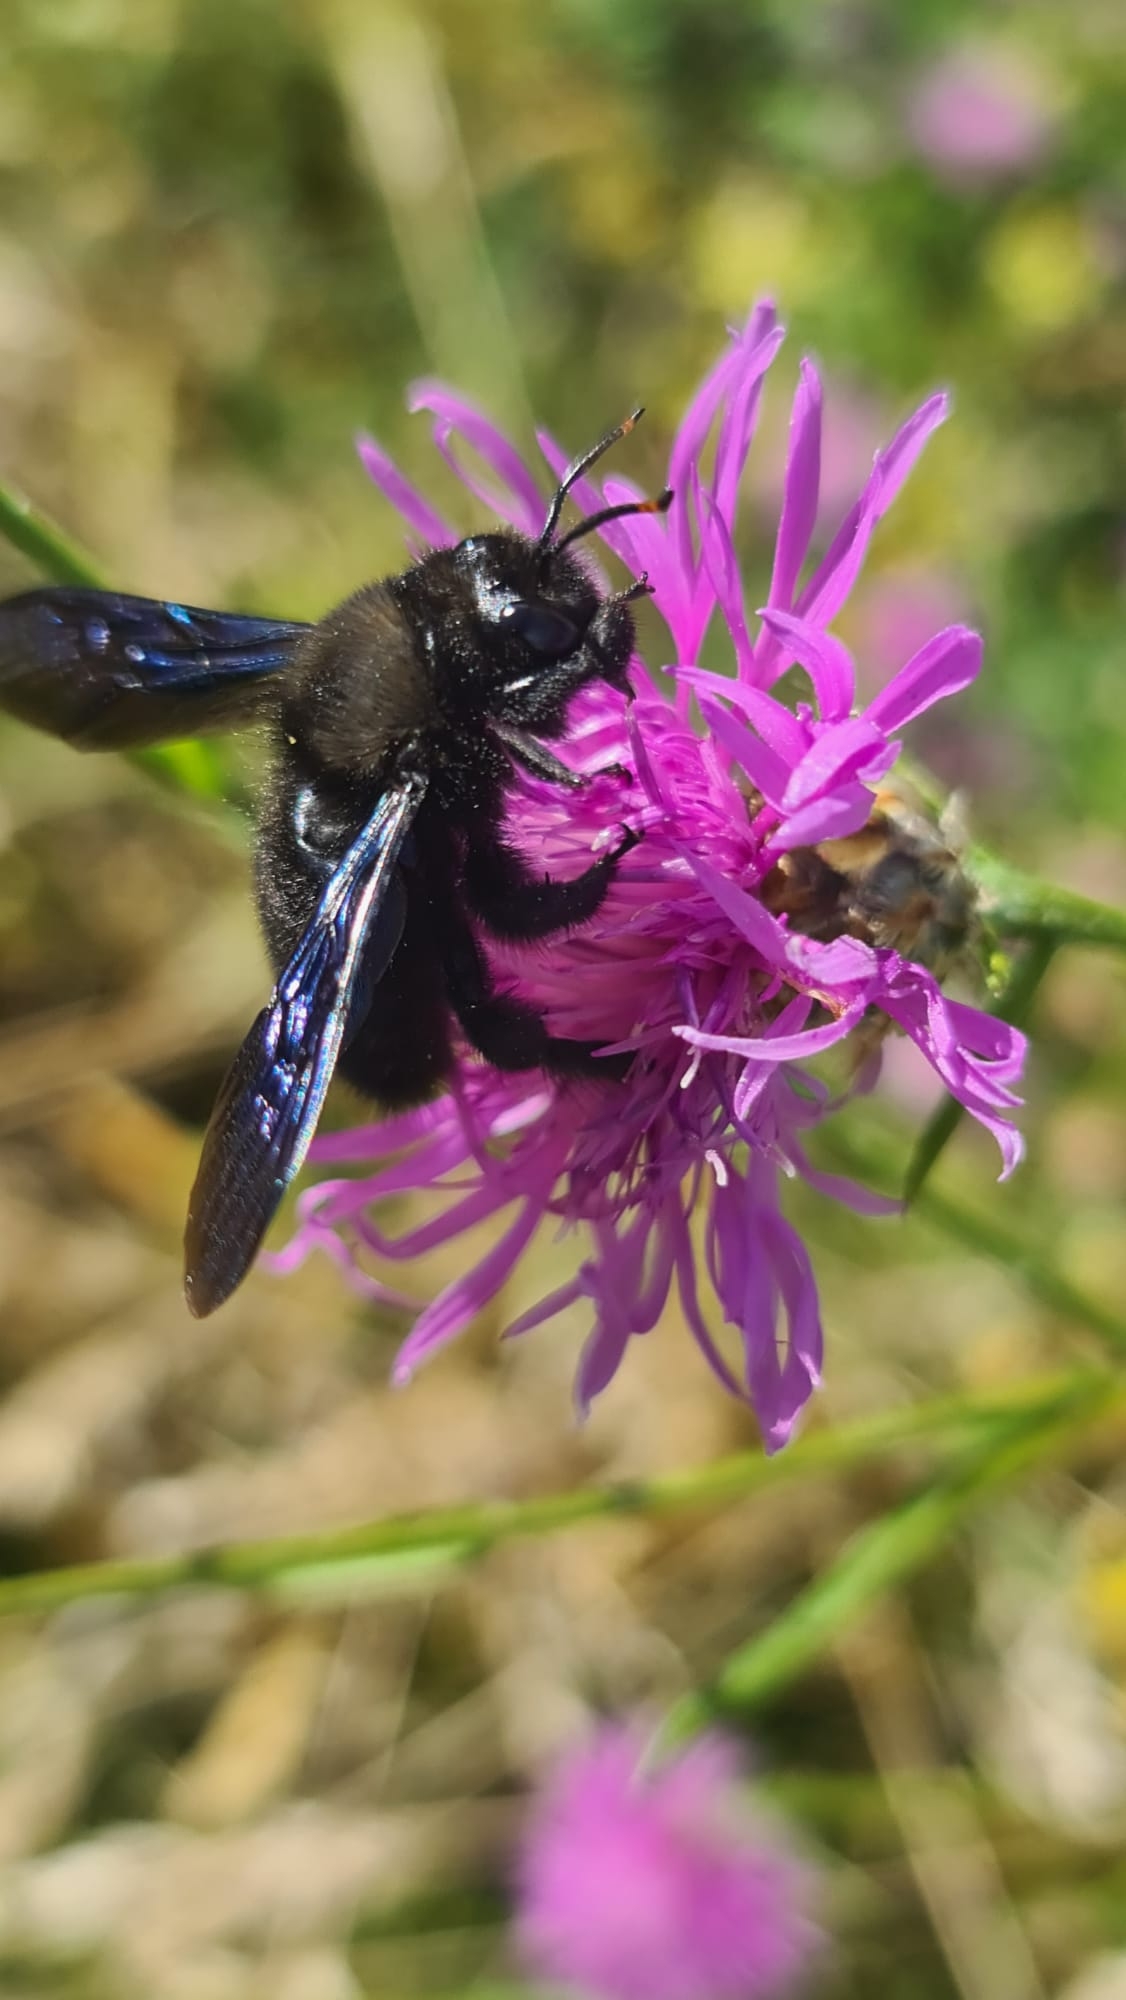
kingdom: Animalia
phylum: Arthropoda
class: Insecta
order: Hymenoptera
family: Apidae
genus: Xylocopa
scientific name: Xylocopa violacea
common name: Violet carpenter bee
